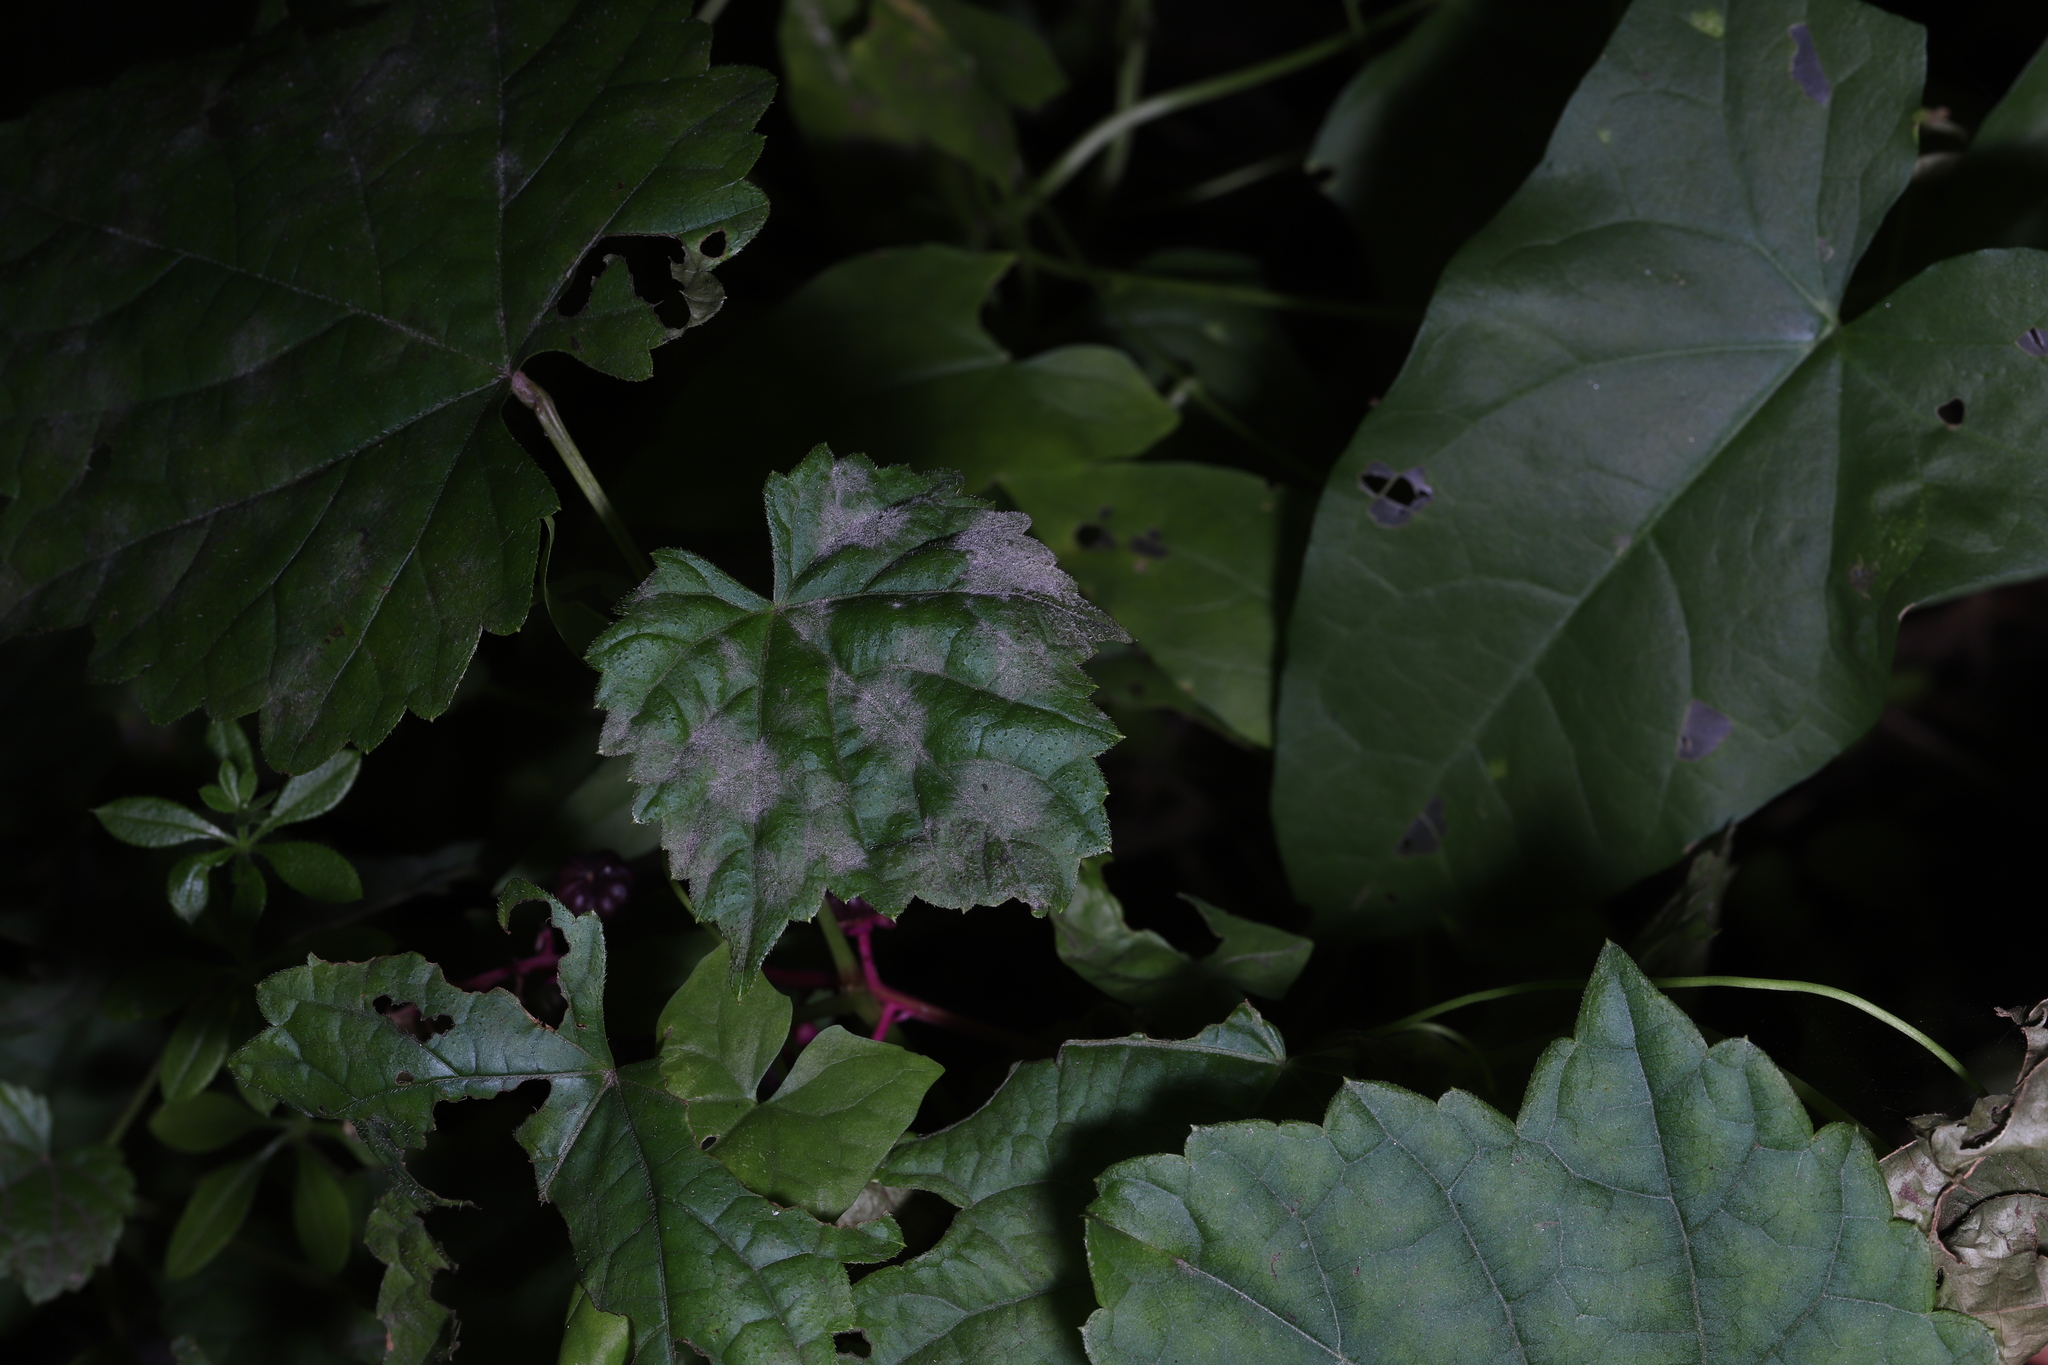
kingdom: Fungi
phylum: Ascomycota
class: Leotiomycetes
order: Helotiales
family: Erysiphaceae
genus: Erysiphe
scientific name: Erysiphe necator
